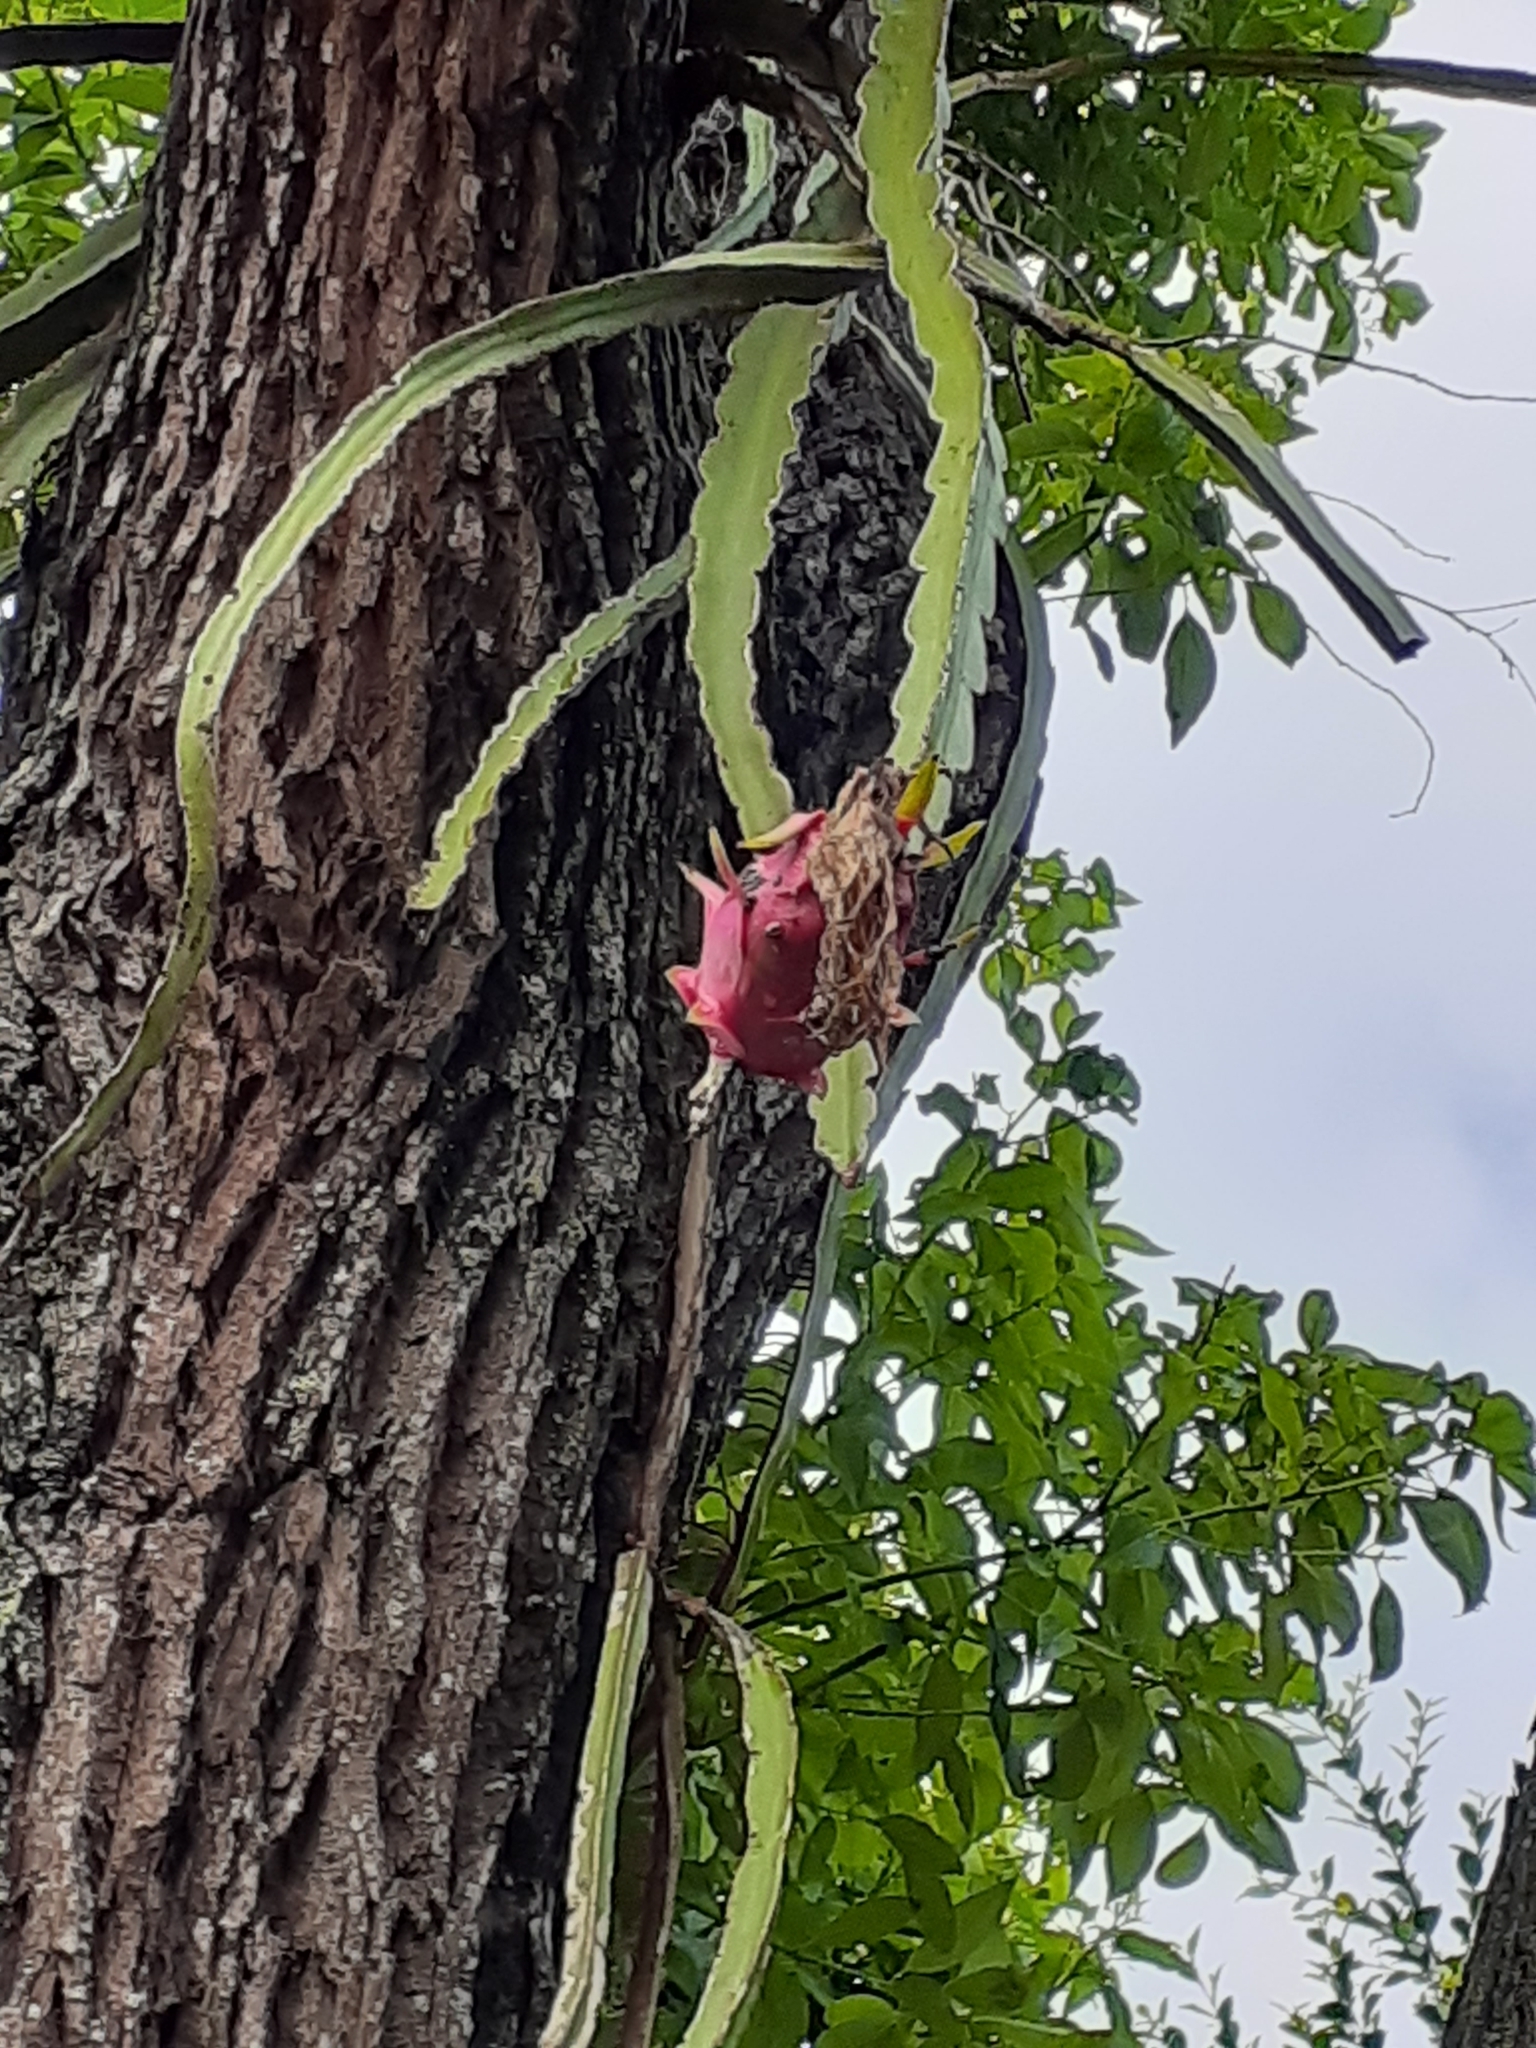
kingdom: Plantae
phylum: Tracheophyta
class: Magnoliopsida
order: Caryophyllales
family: Cactaceae
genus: Selenicereus
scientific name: Selenicereus undatus
